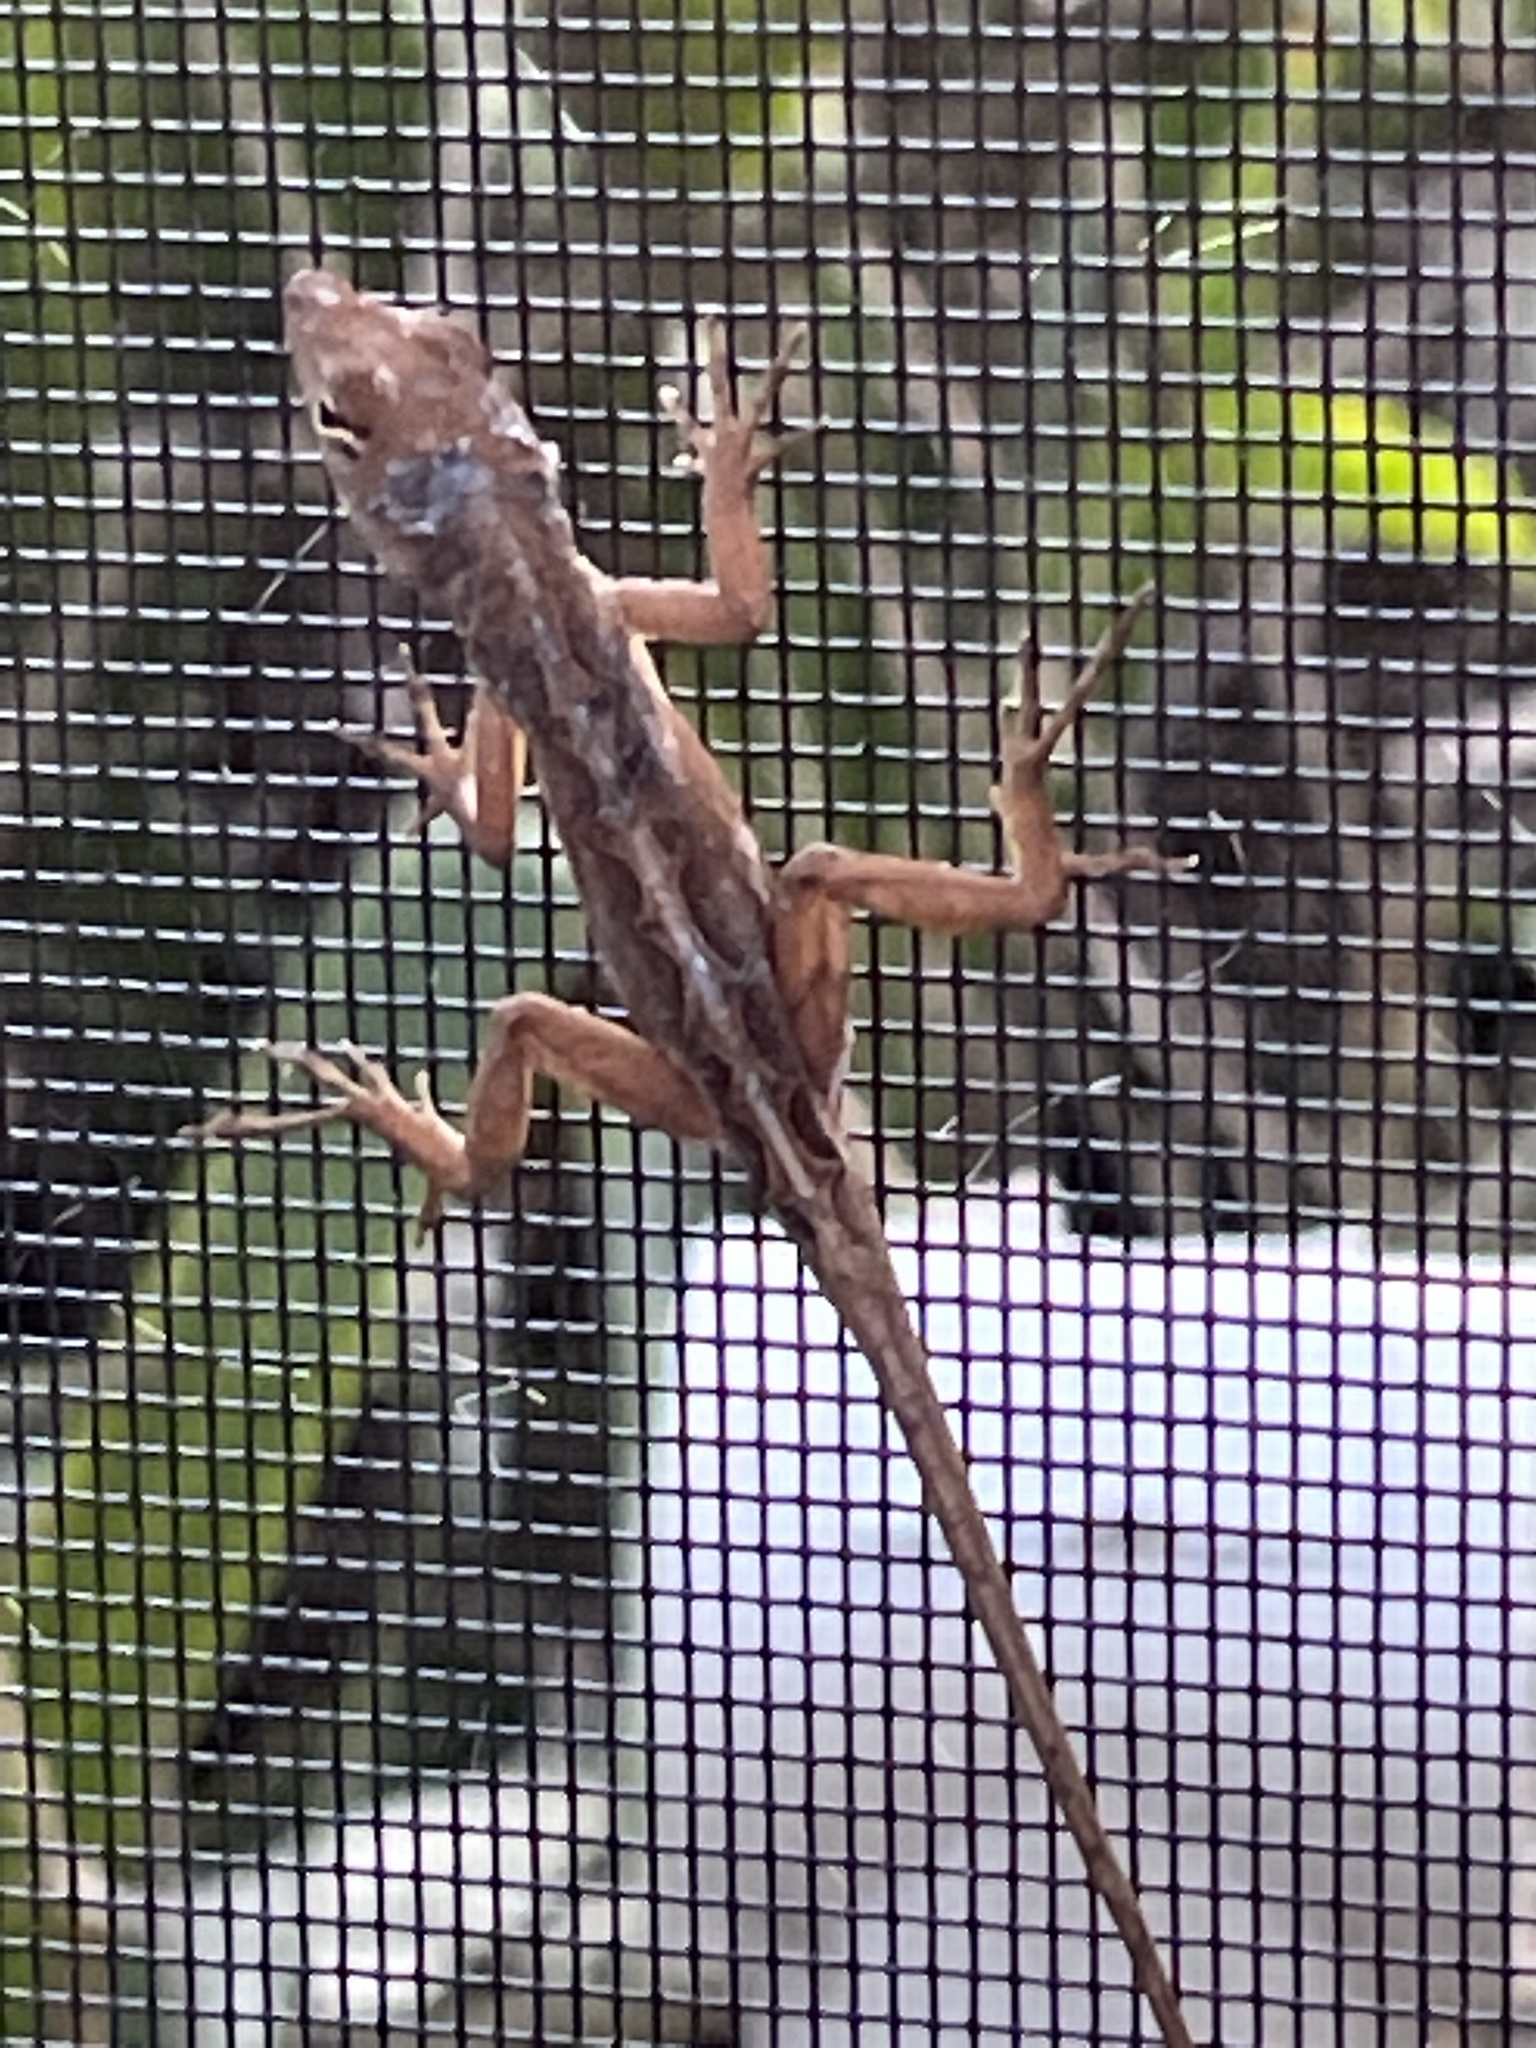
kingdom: Animalia
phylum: Chordata
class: Squamata
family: Dactyloidae
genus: Anolis
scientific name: Anolis sagrei
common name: Brown anole
